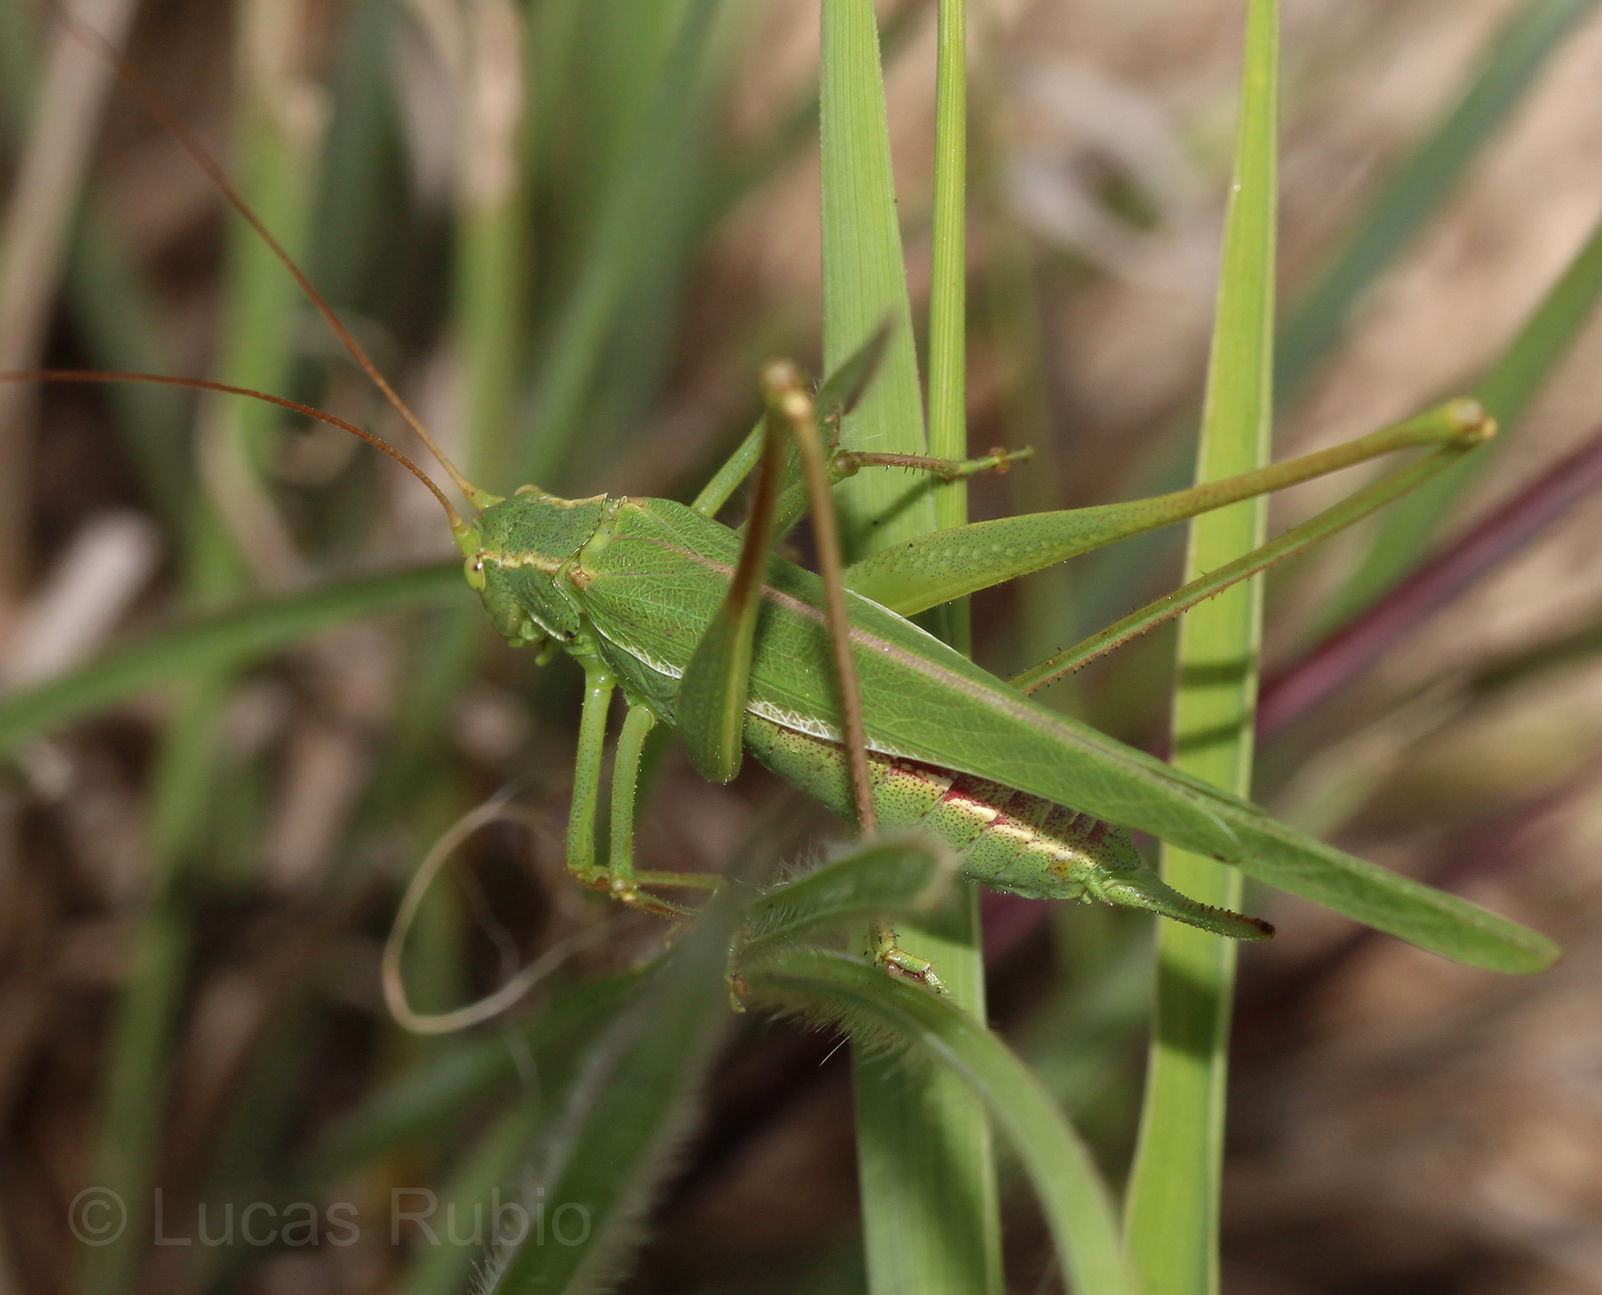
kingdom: Animalia
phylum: Arthropoda
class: Insecta
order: Orthoptera
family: Tettigoniidae
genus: Burgilis
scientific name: Burgilis curta
